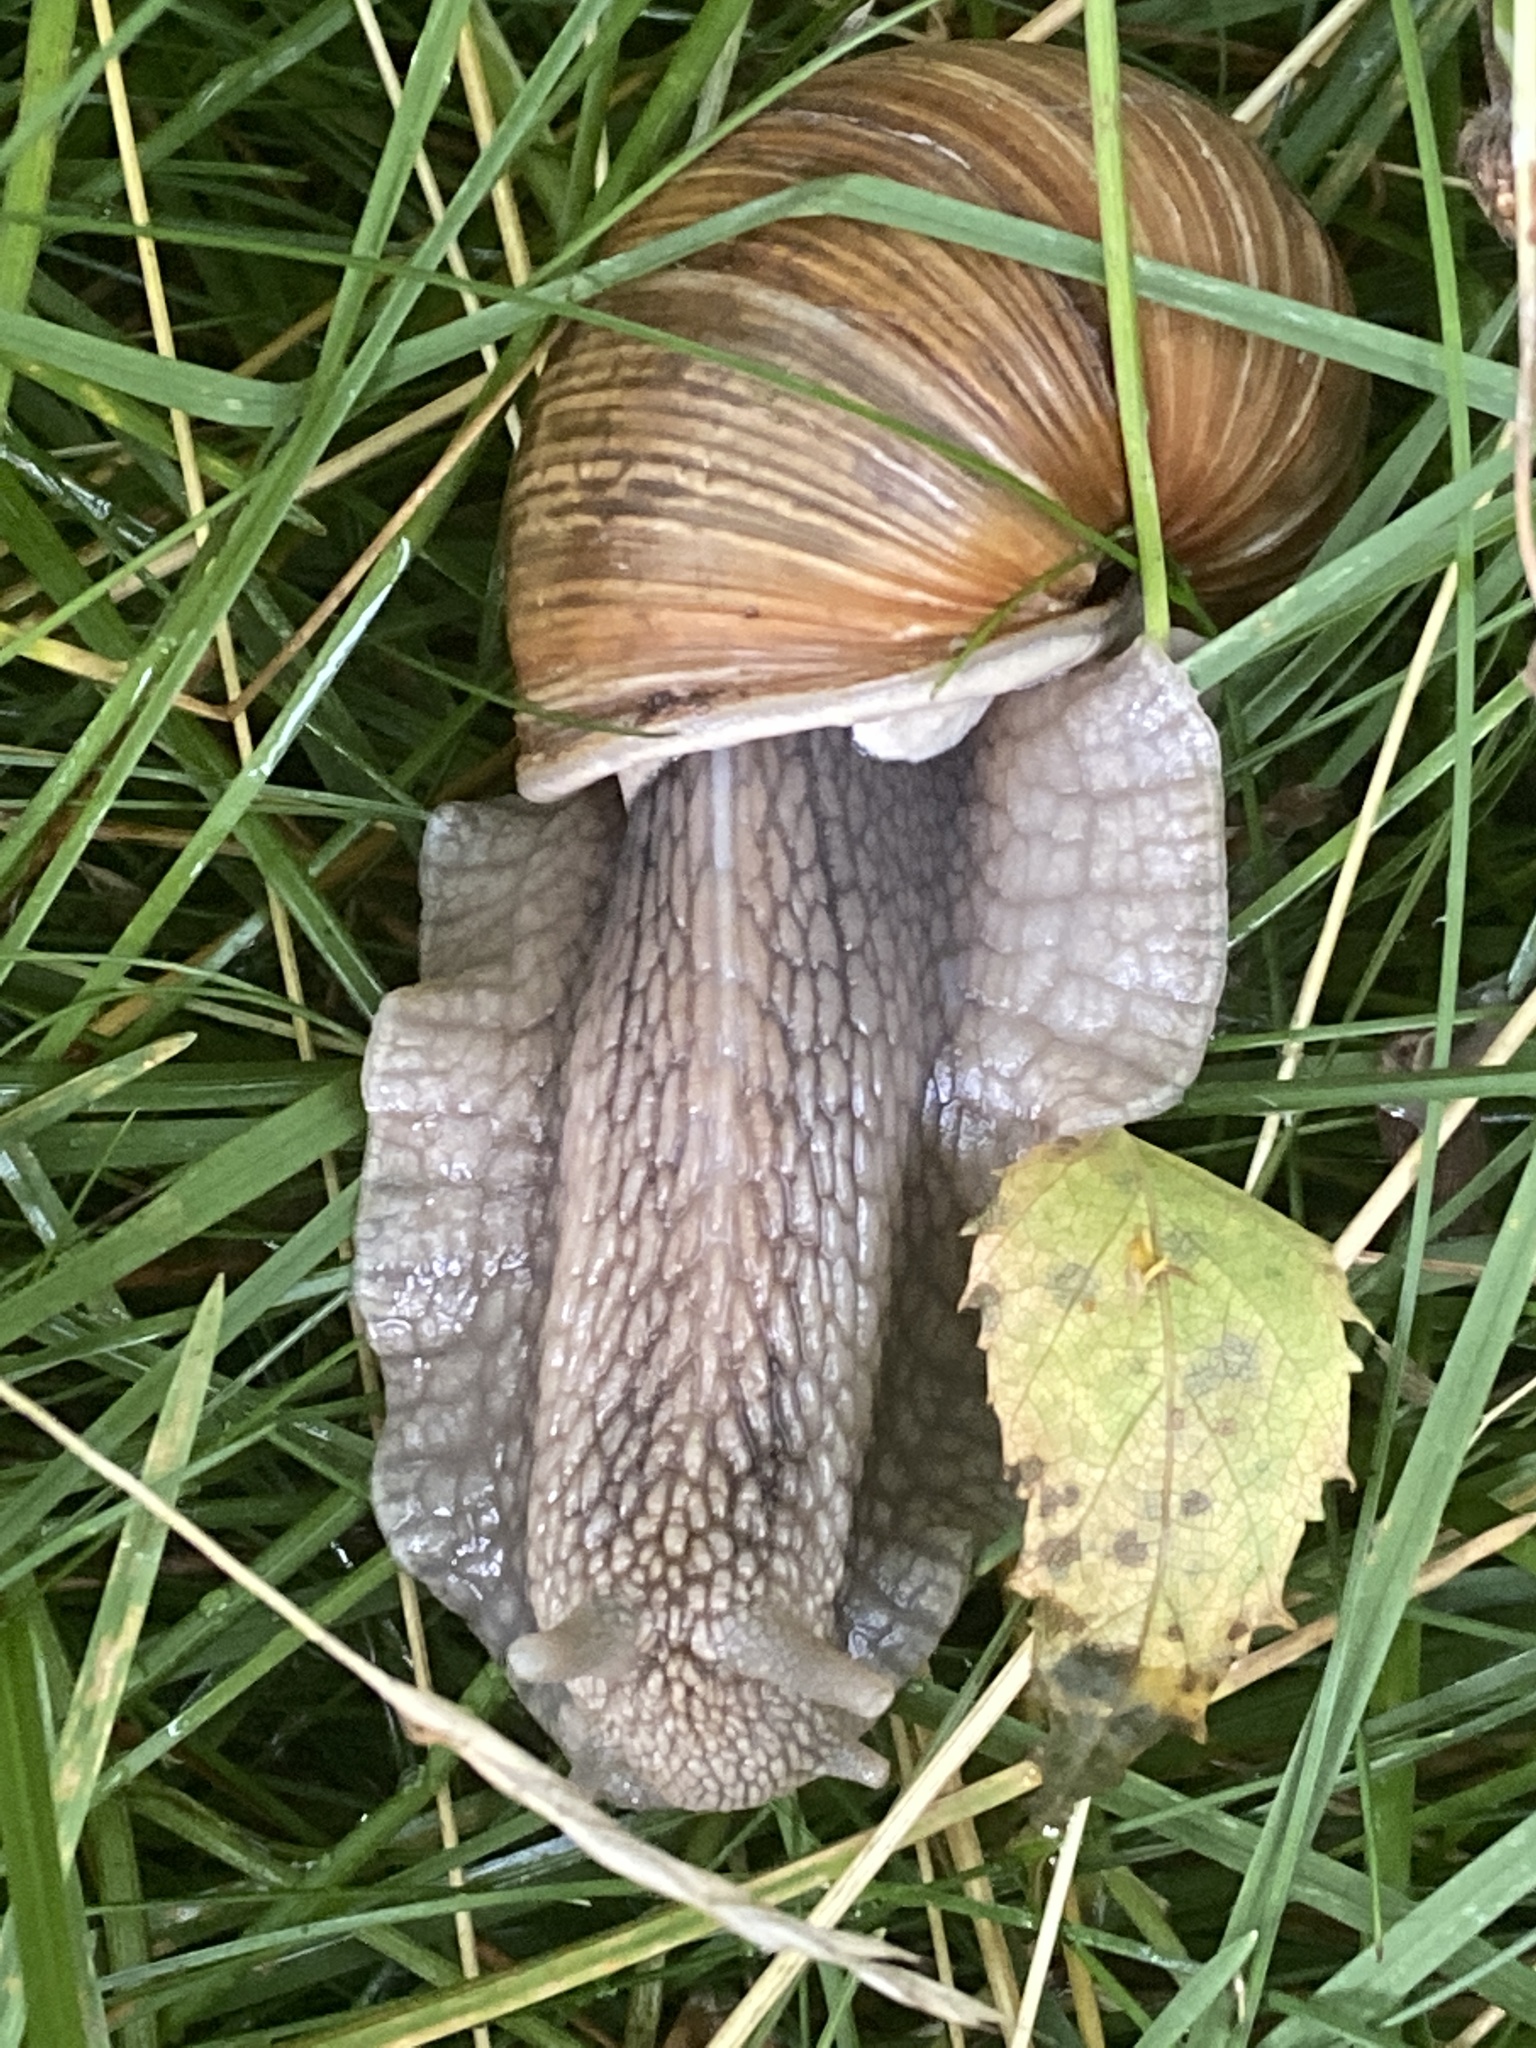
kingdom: Animalia
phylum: Mollusca
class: Gastropoda
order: Stylommatophora
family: Helicidae
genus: Helix
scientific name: Helix pomatia
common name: Roman snail
